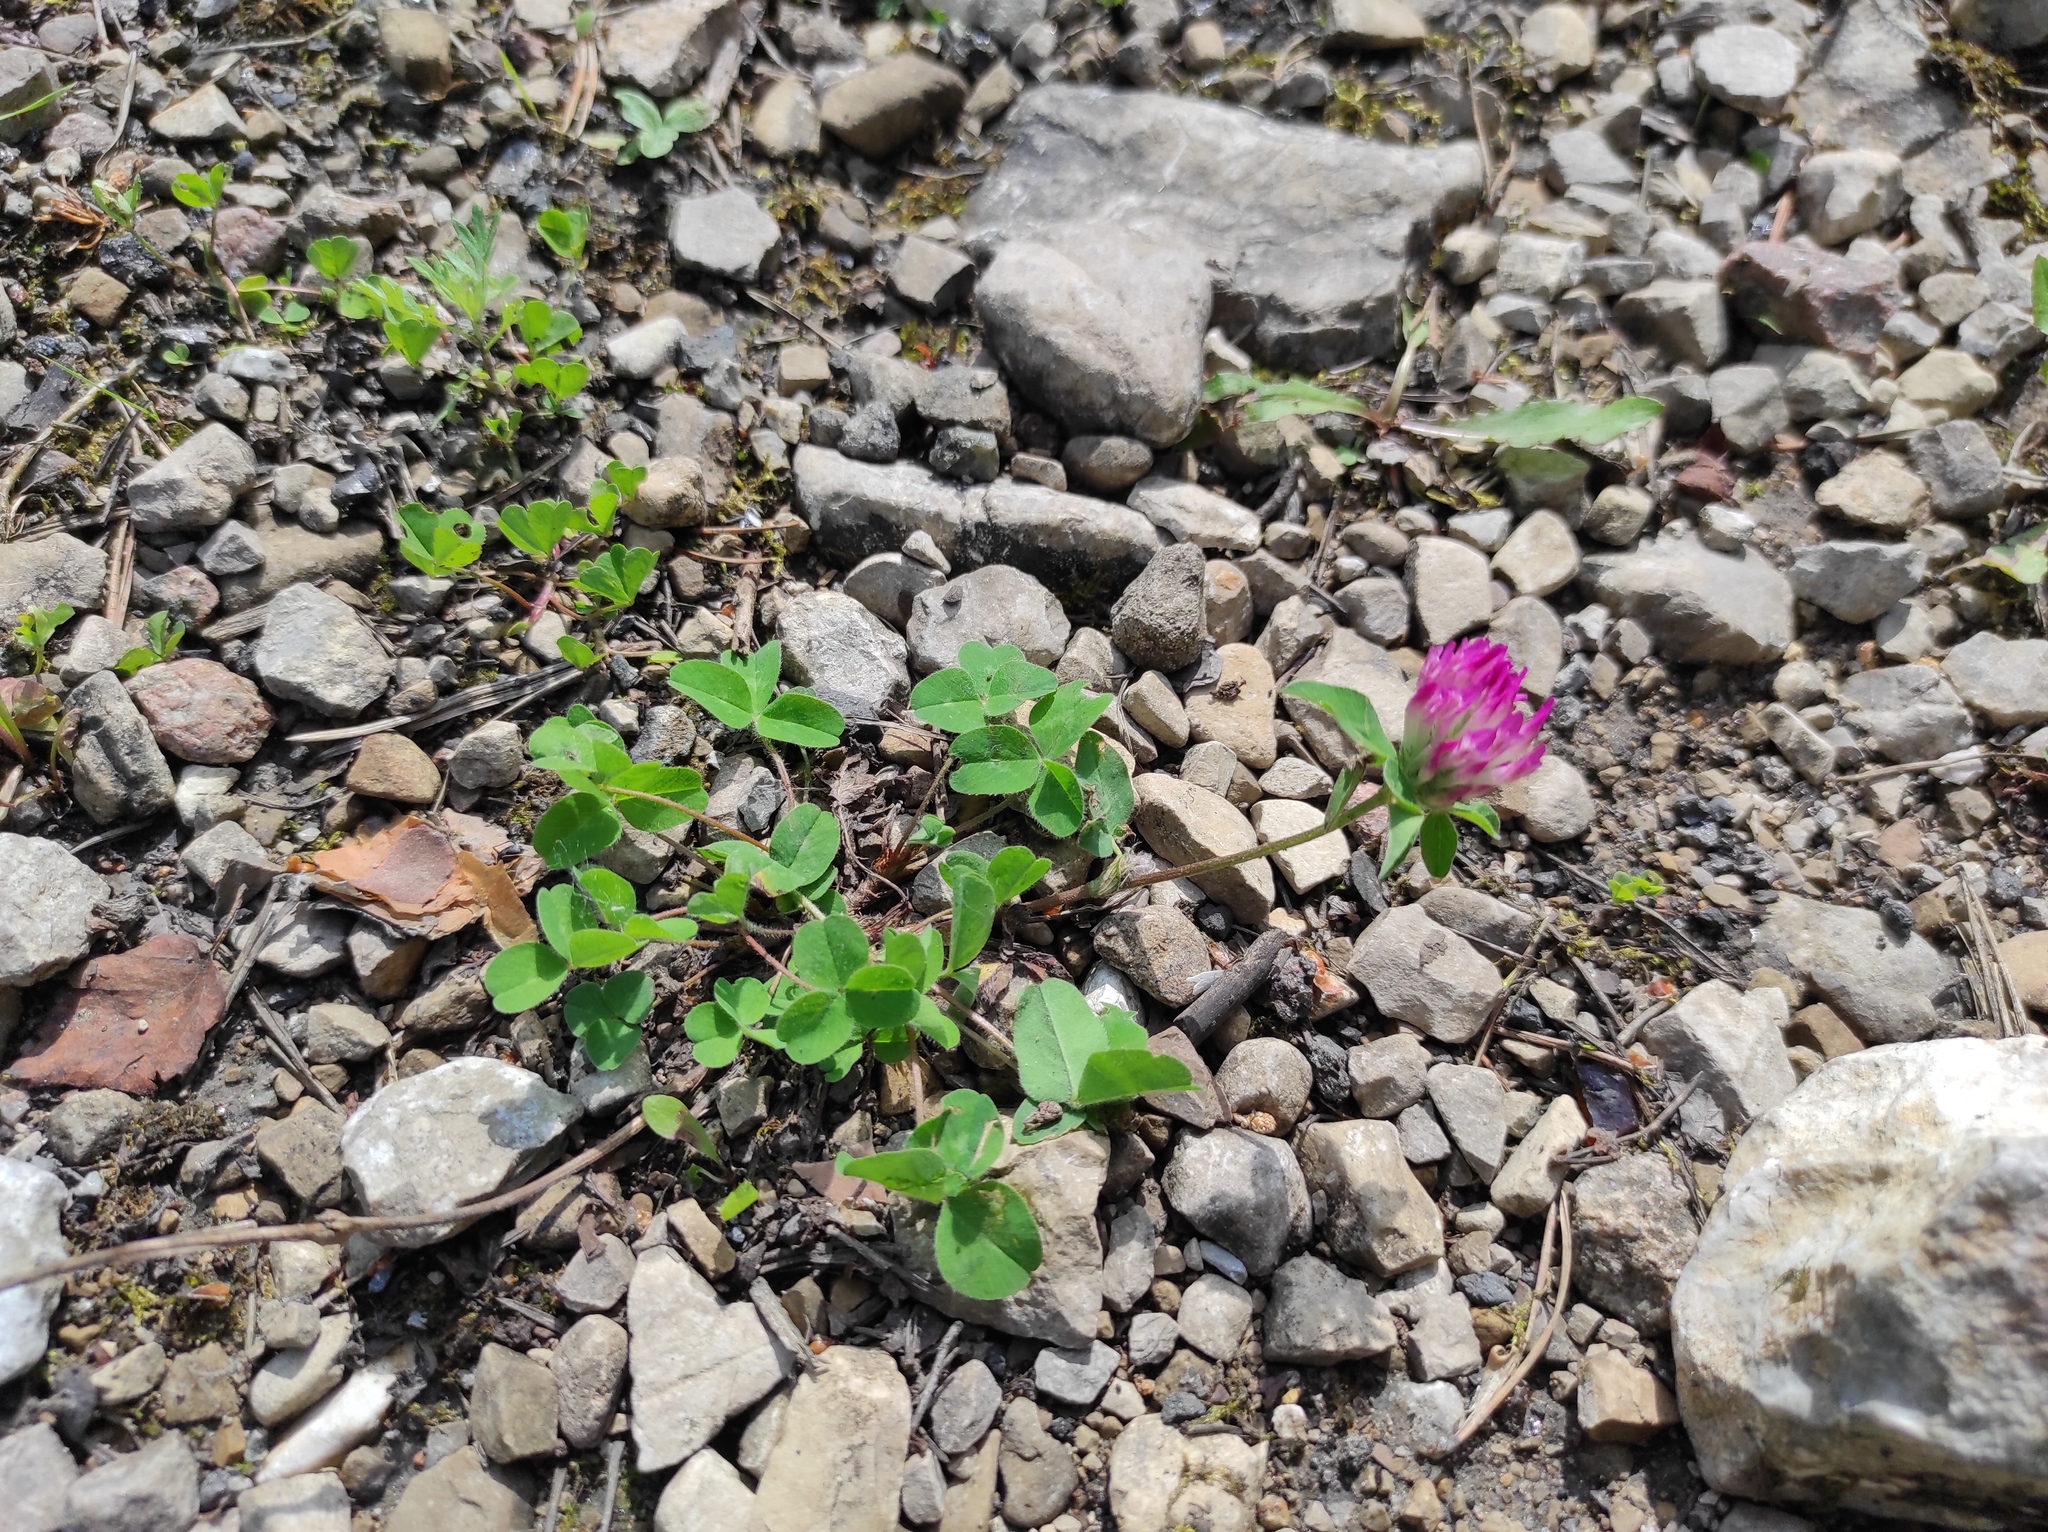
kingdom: Plantae
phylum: Tracheophyta
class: Magnoliopsida
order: Fabales
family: Fabaceae
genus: Trifolium
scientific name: Trifolium pratense
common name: Red clover
